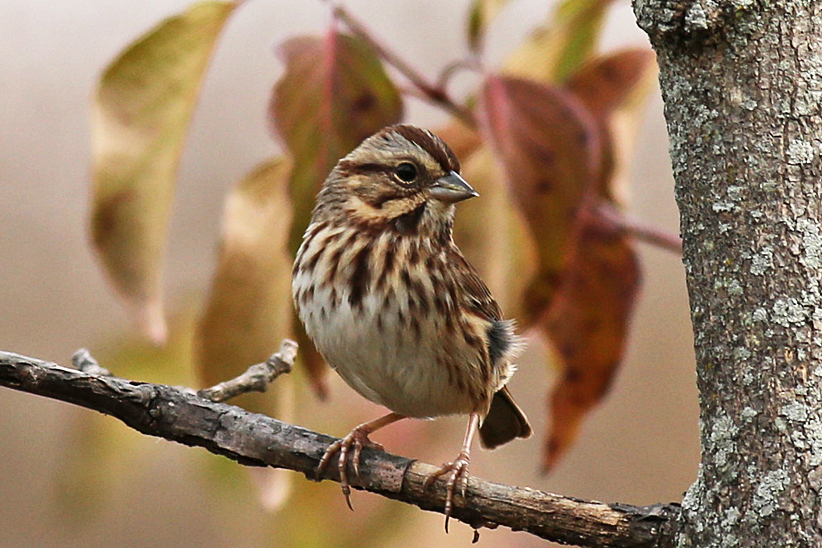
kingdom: Animalia
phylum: Chordata
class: Aves
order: Passeriformes
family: Passerellidae
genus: Melospiza
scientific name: Melospiza melodia
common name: Song sparrow
